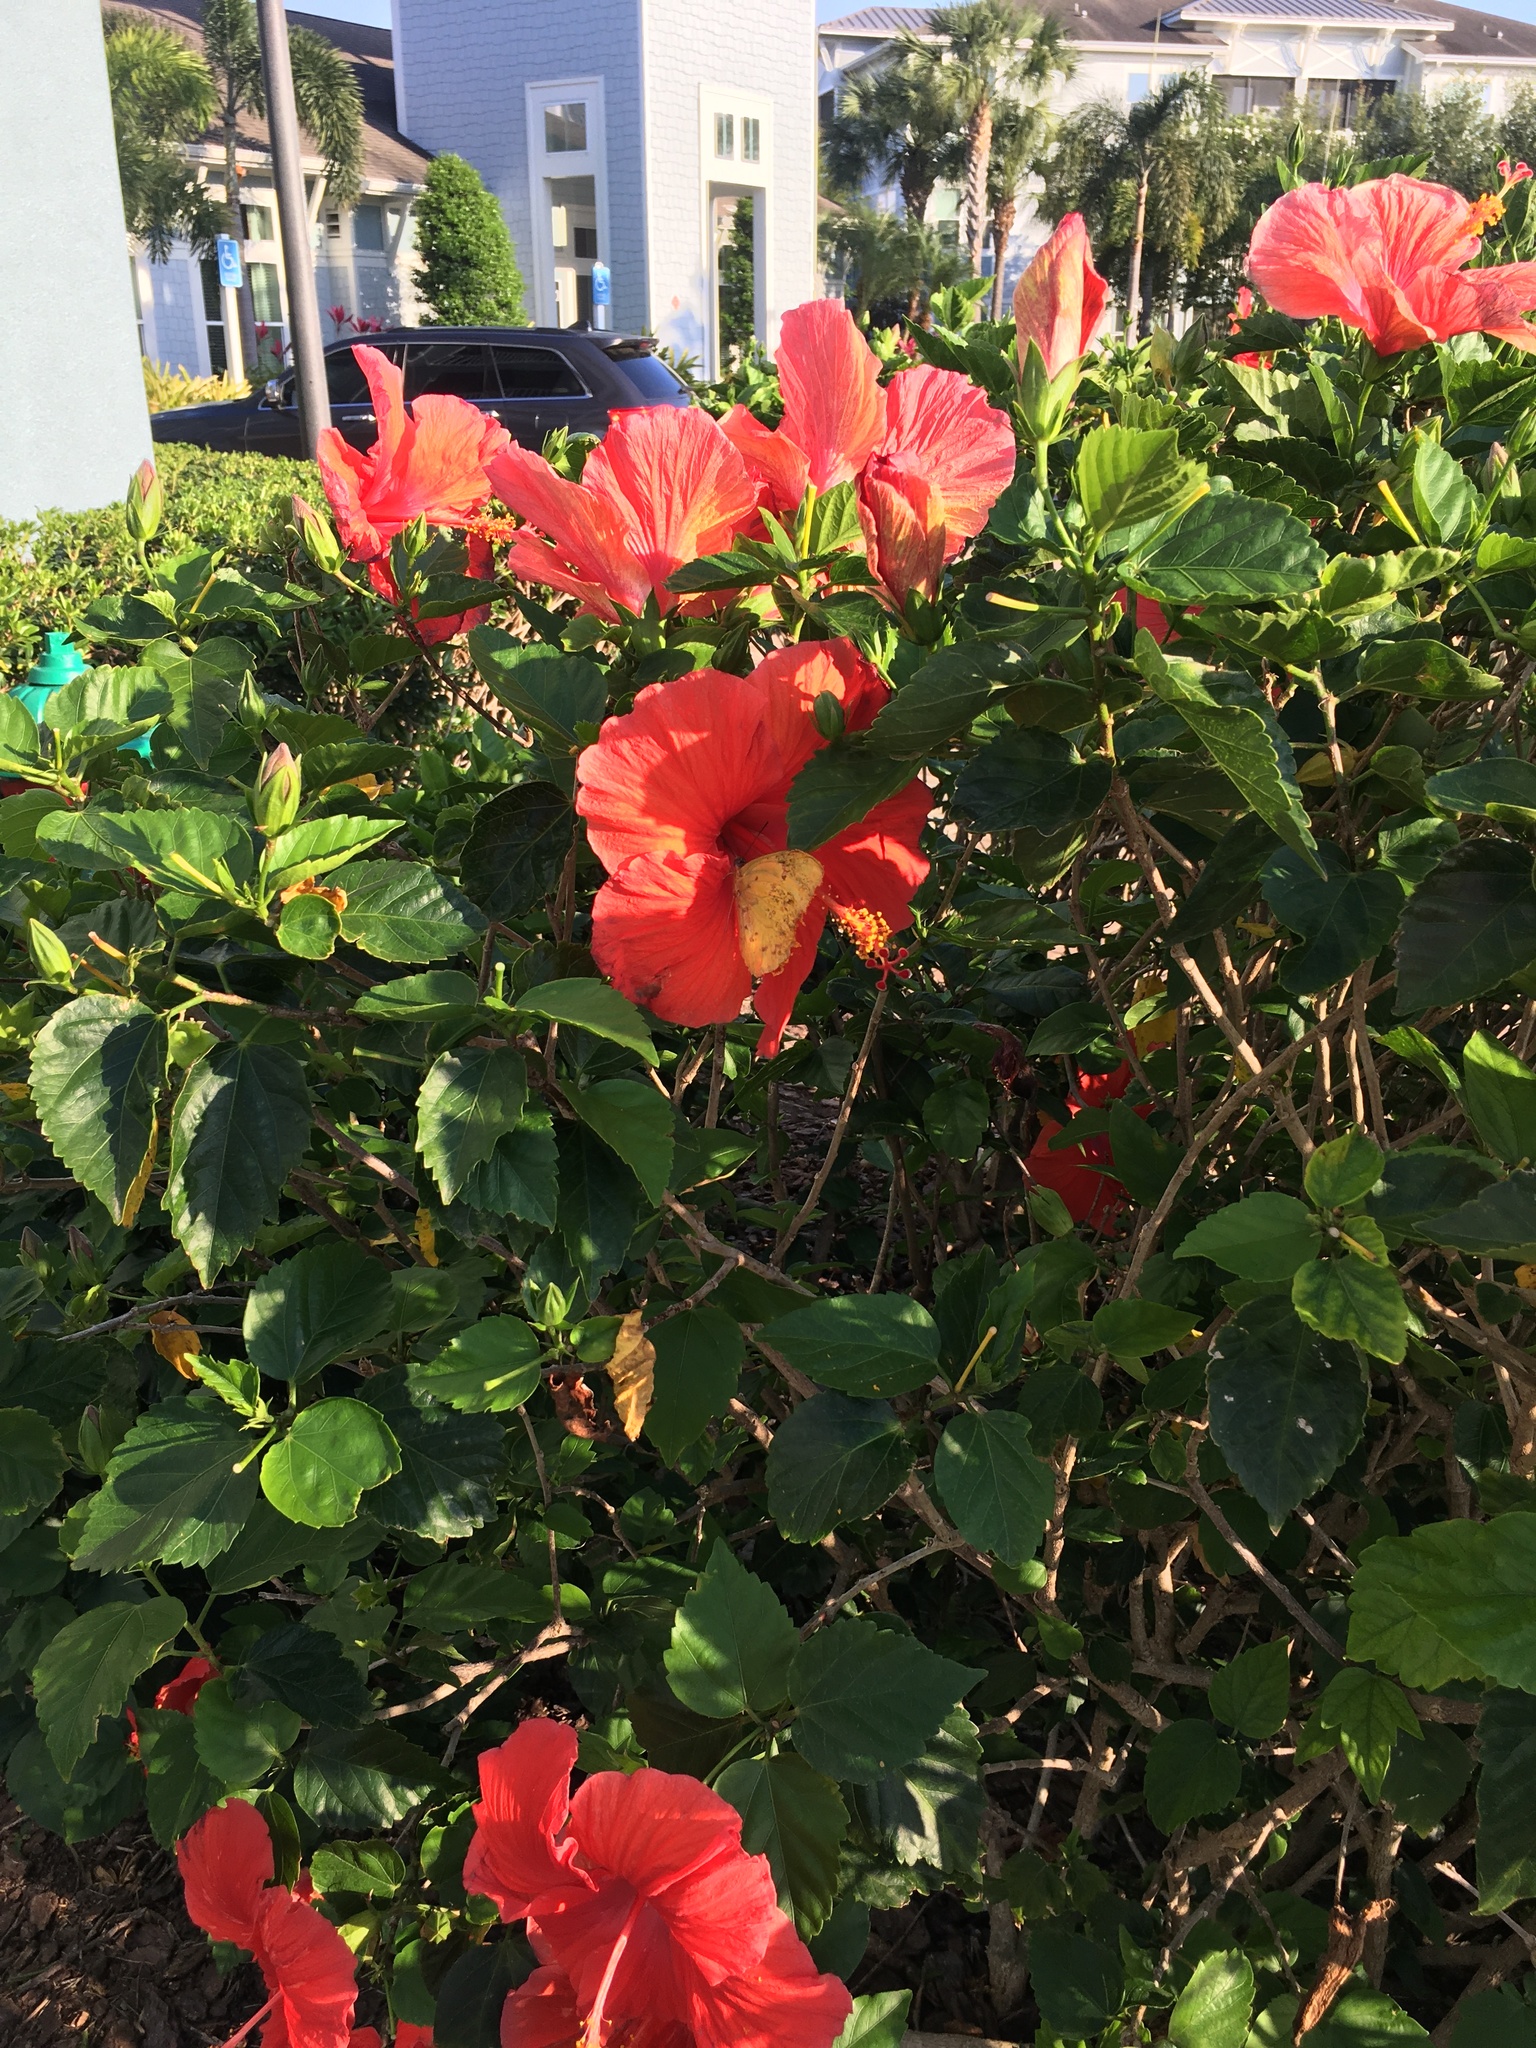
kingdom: Animalia
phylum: Arthropoda
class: Insecta
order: Lepidoptera
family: Pieridae
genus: Phoebis
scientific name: Phoebis philea
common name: Orange-barred giant sulphur
